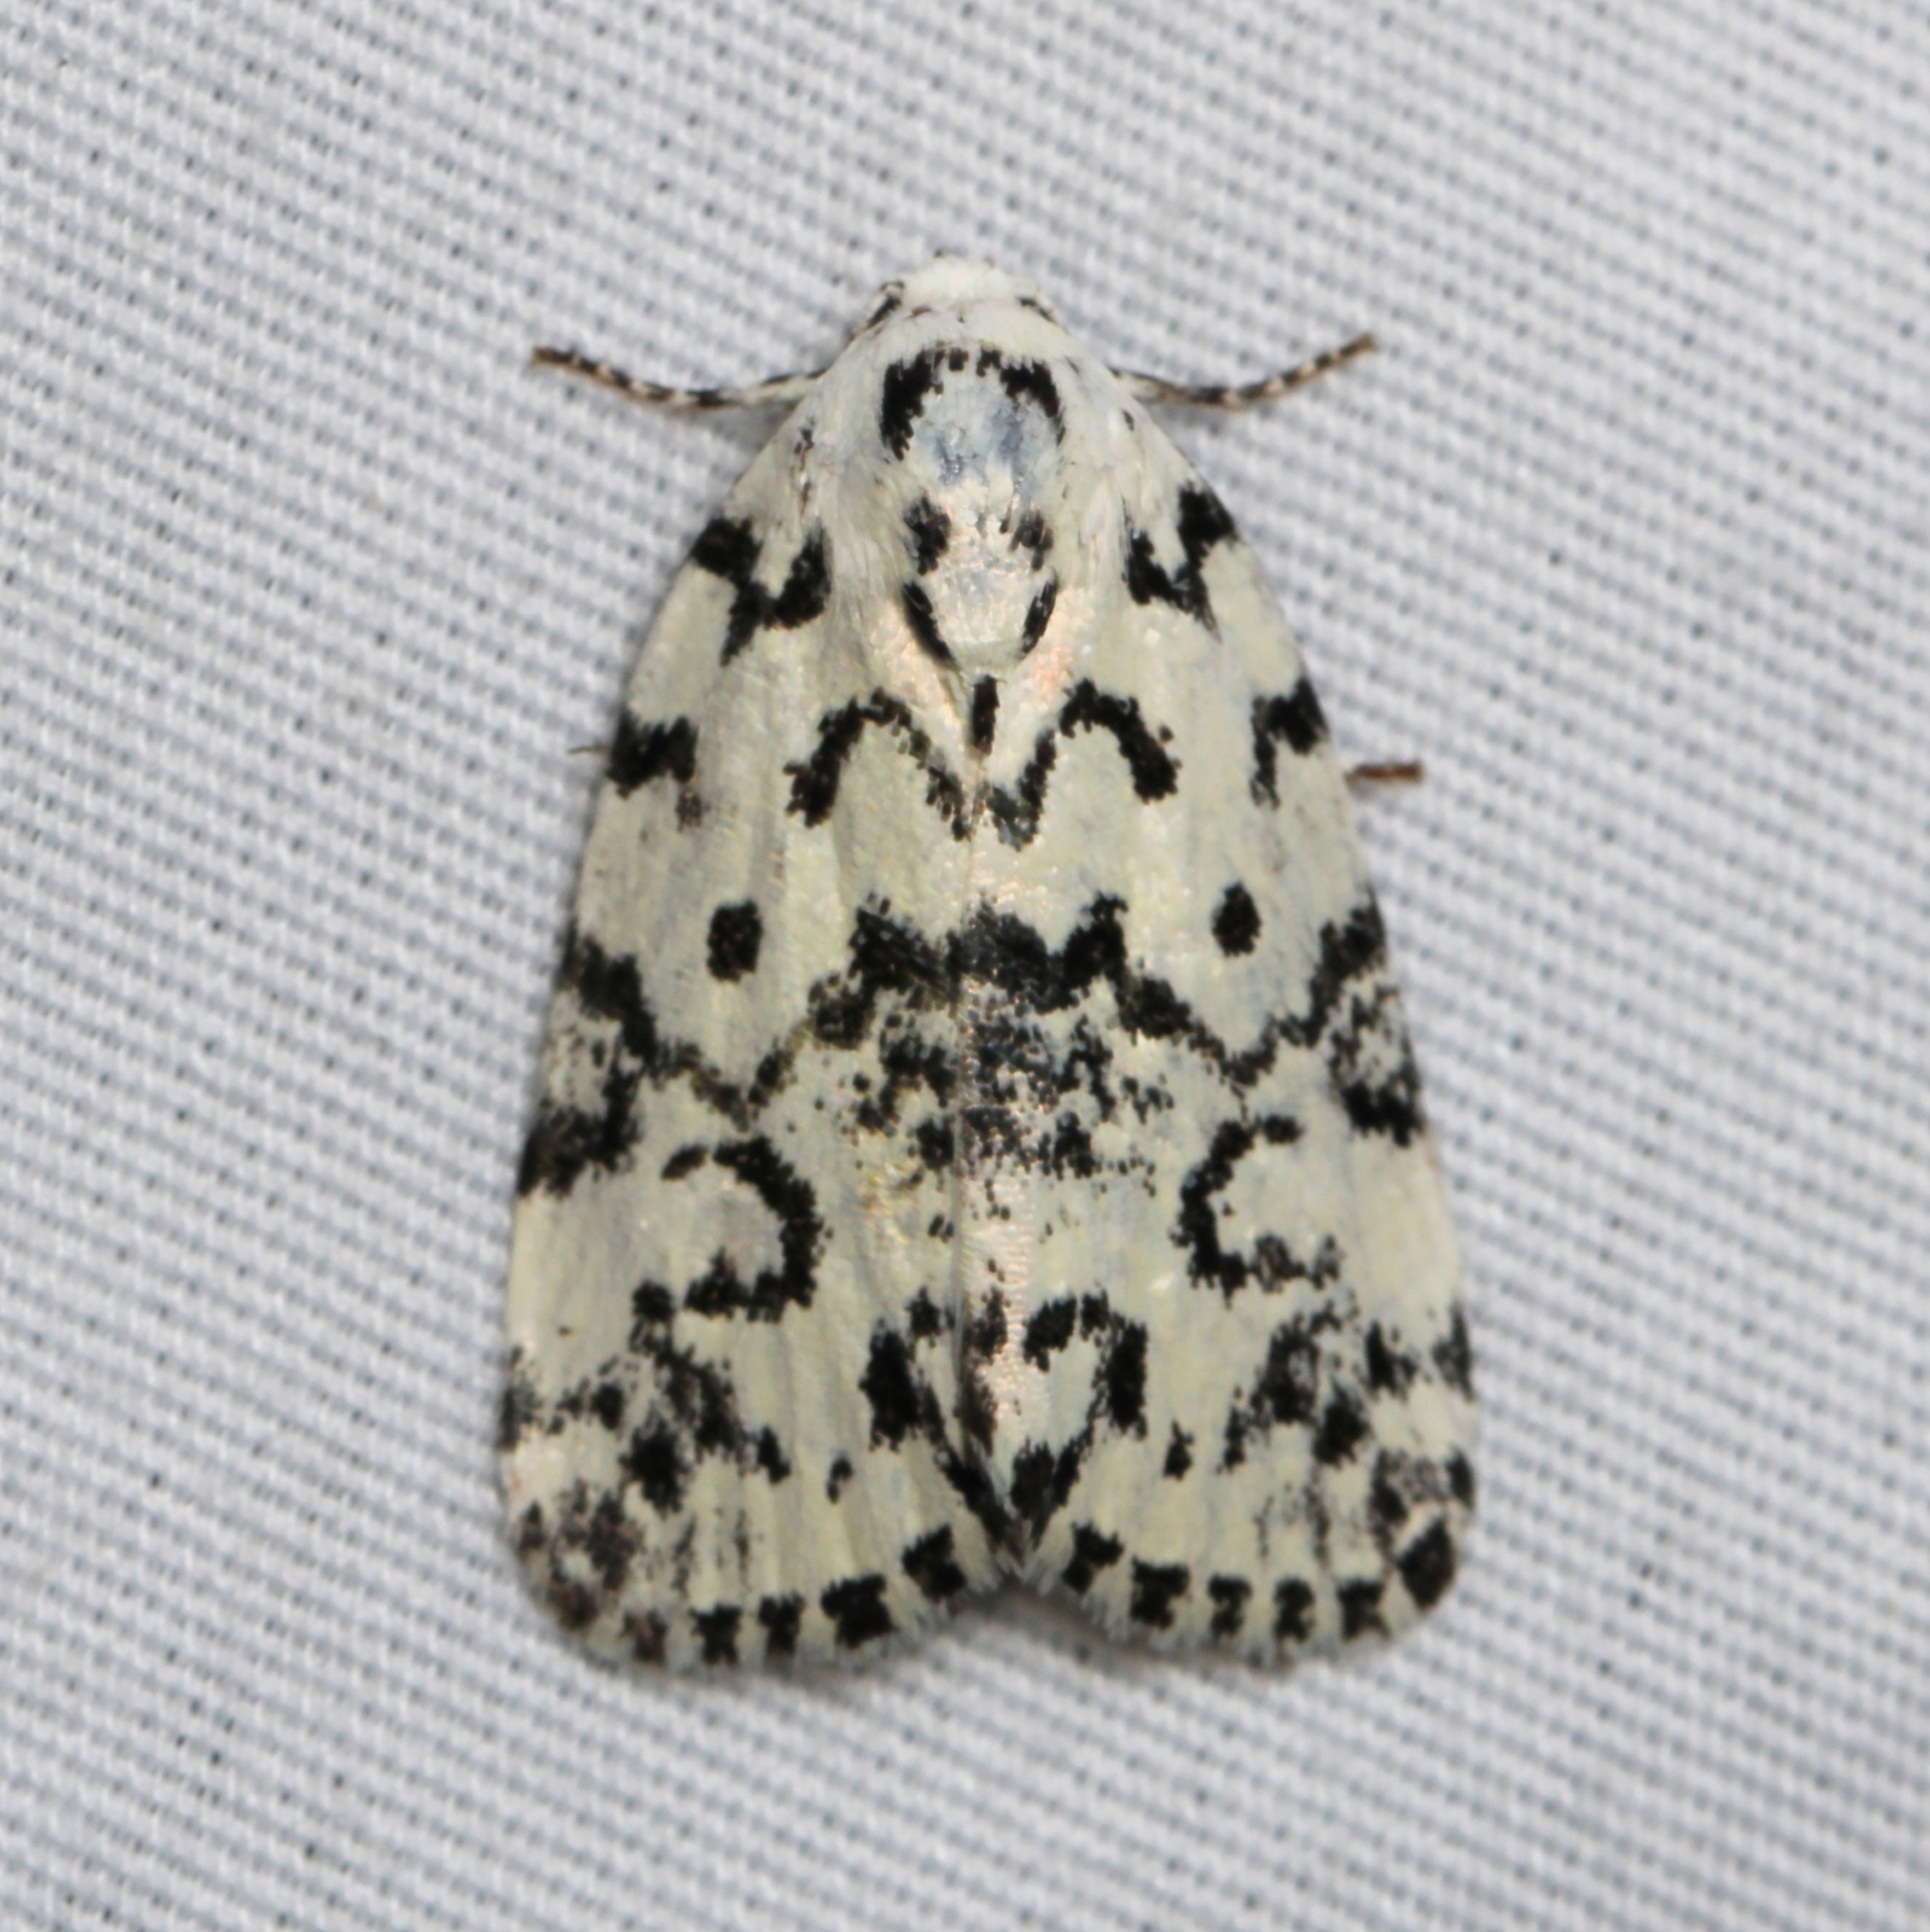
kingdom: Animalia
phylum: Arthropoda
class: Insecta
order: Lepidoptera
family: Noctuidae
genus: Polygrammate
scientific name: Polygrammate hebraeicum
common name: Hebrew moth
